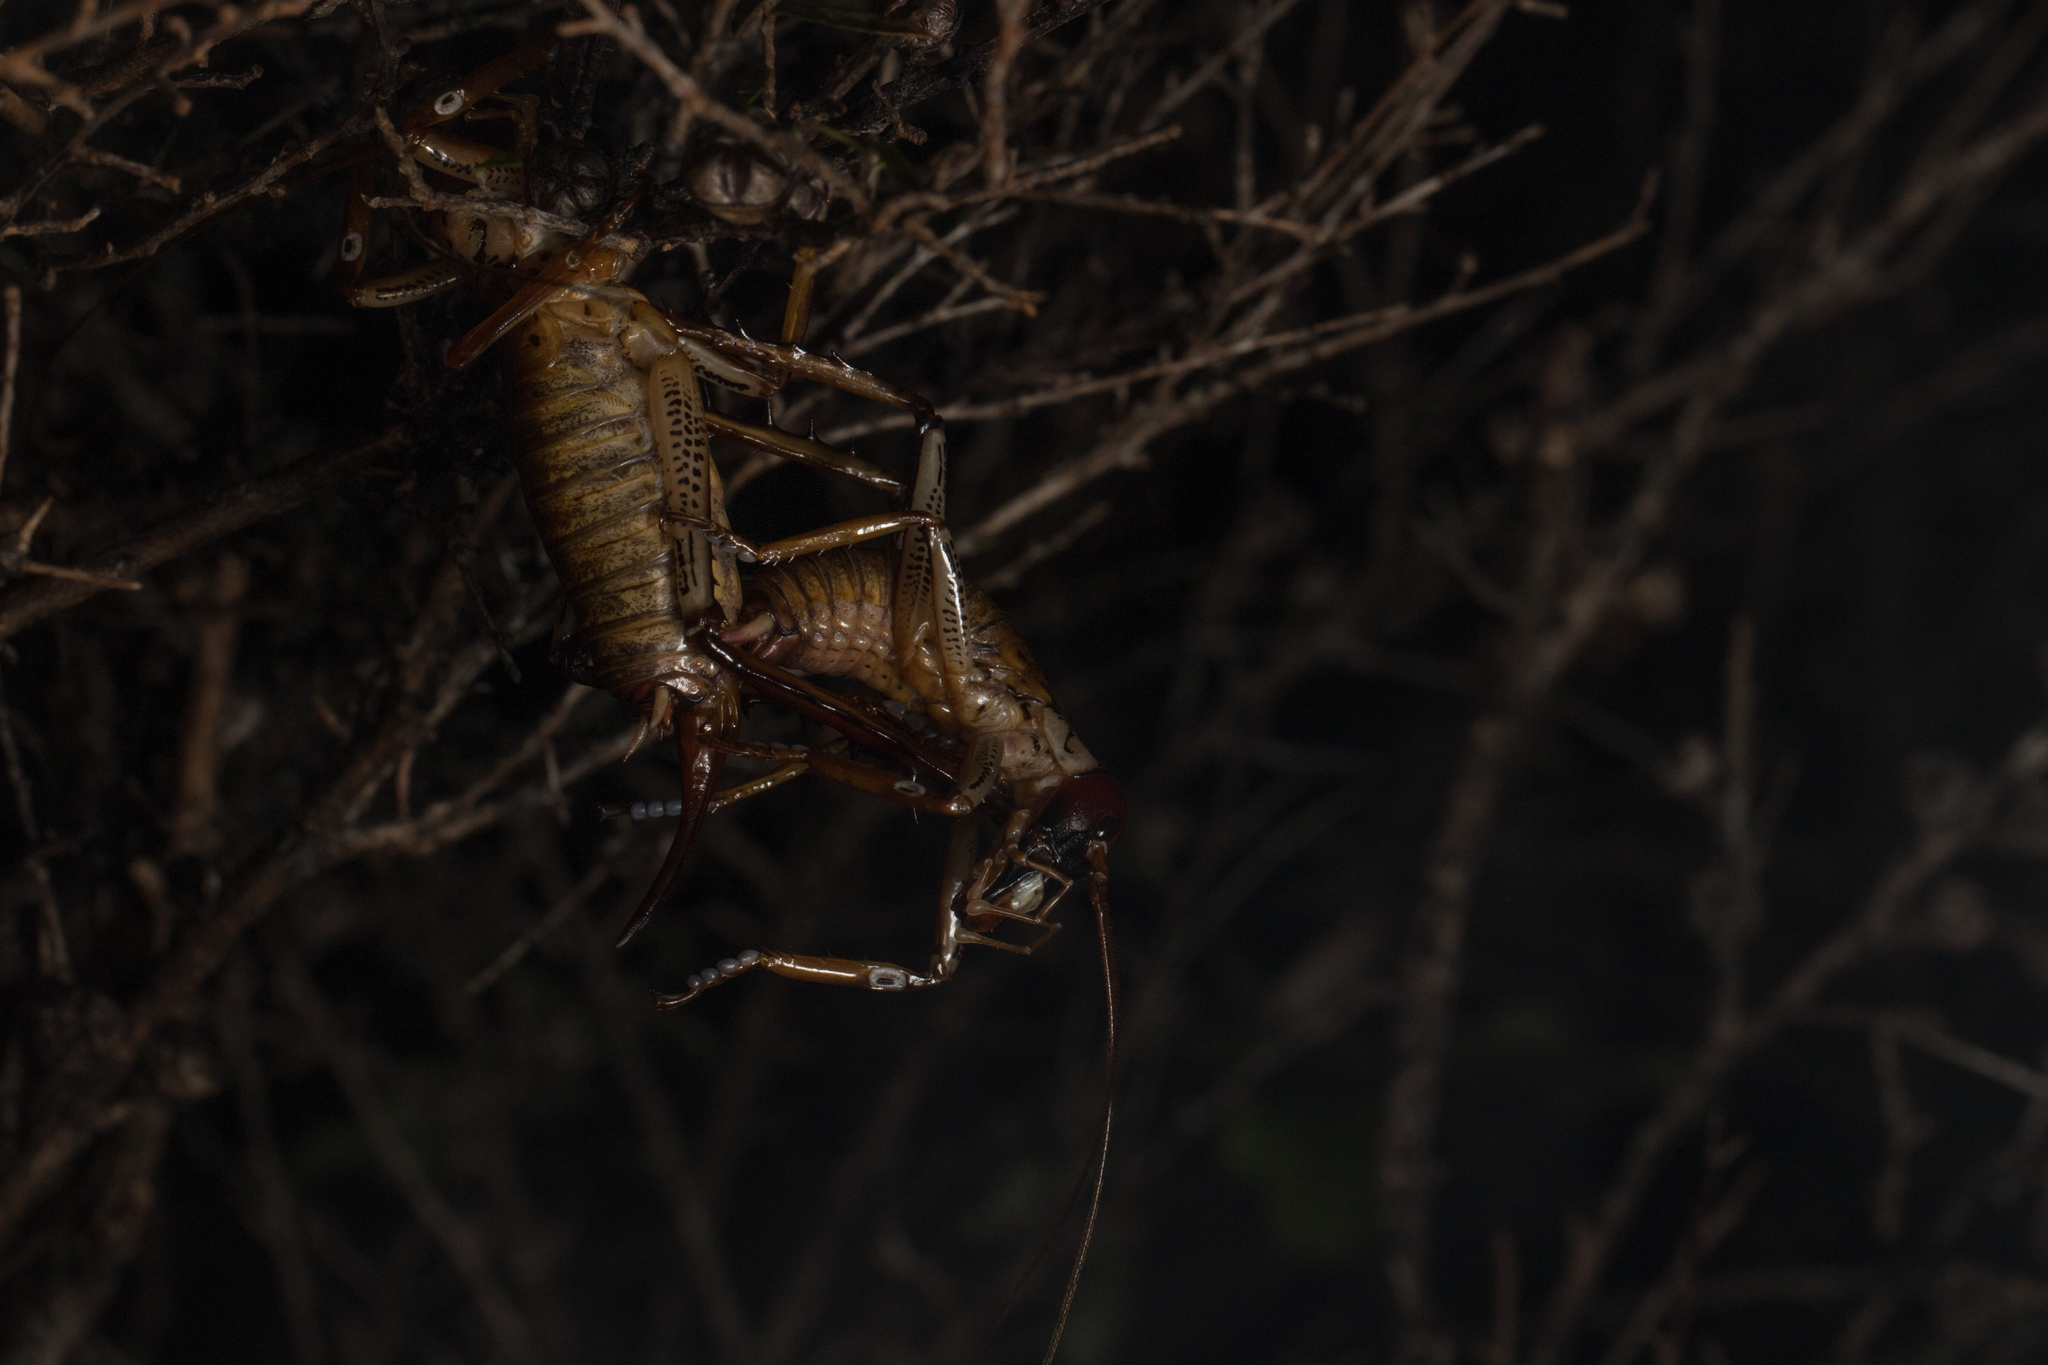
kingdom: Animalia
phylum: Arthropoda
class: Insecta
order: Orthoptera
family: Anostostomatidae
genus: Hemideina
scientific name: Hemideina thoracica
